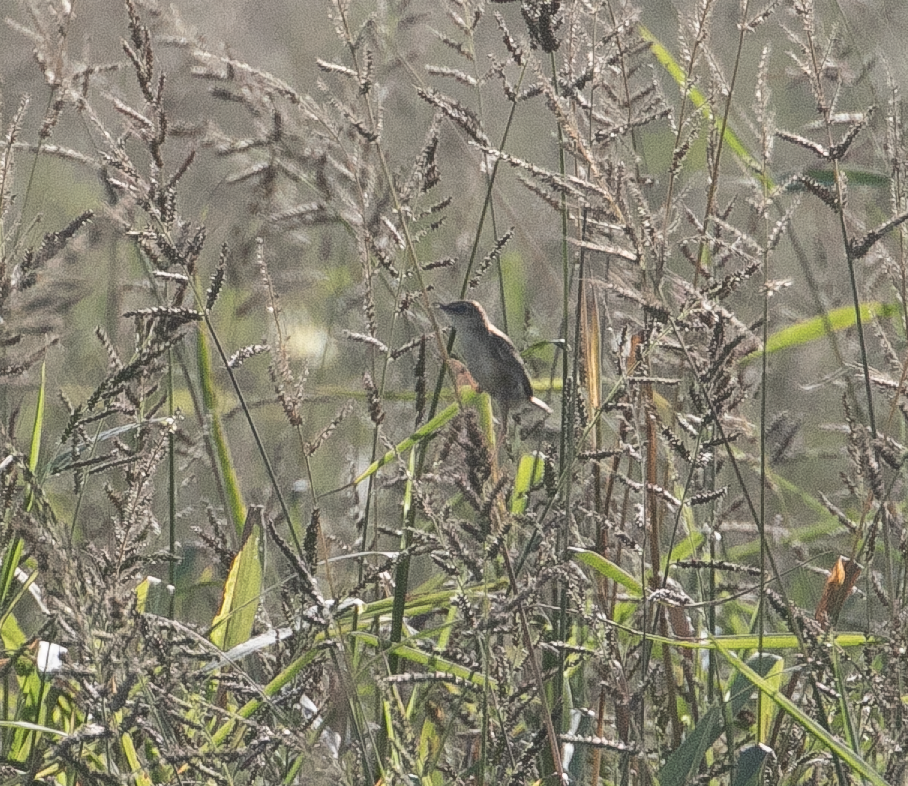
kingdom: Animalia
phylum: Chordata
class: Aves
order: Passeriformes
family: Cisticolidae
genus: Cisticola
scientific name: Cisticola juncidis
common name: Zitting cisticola
